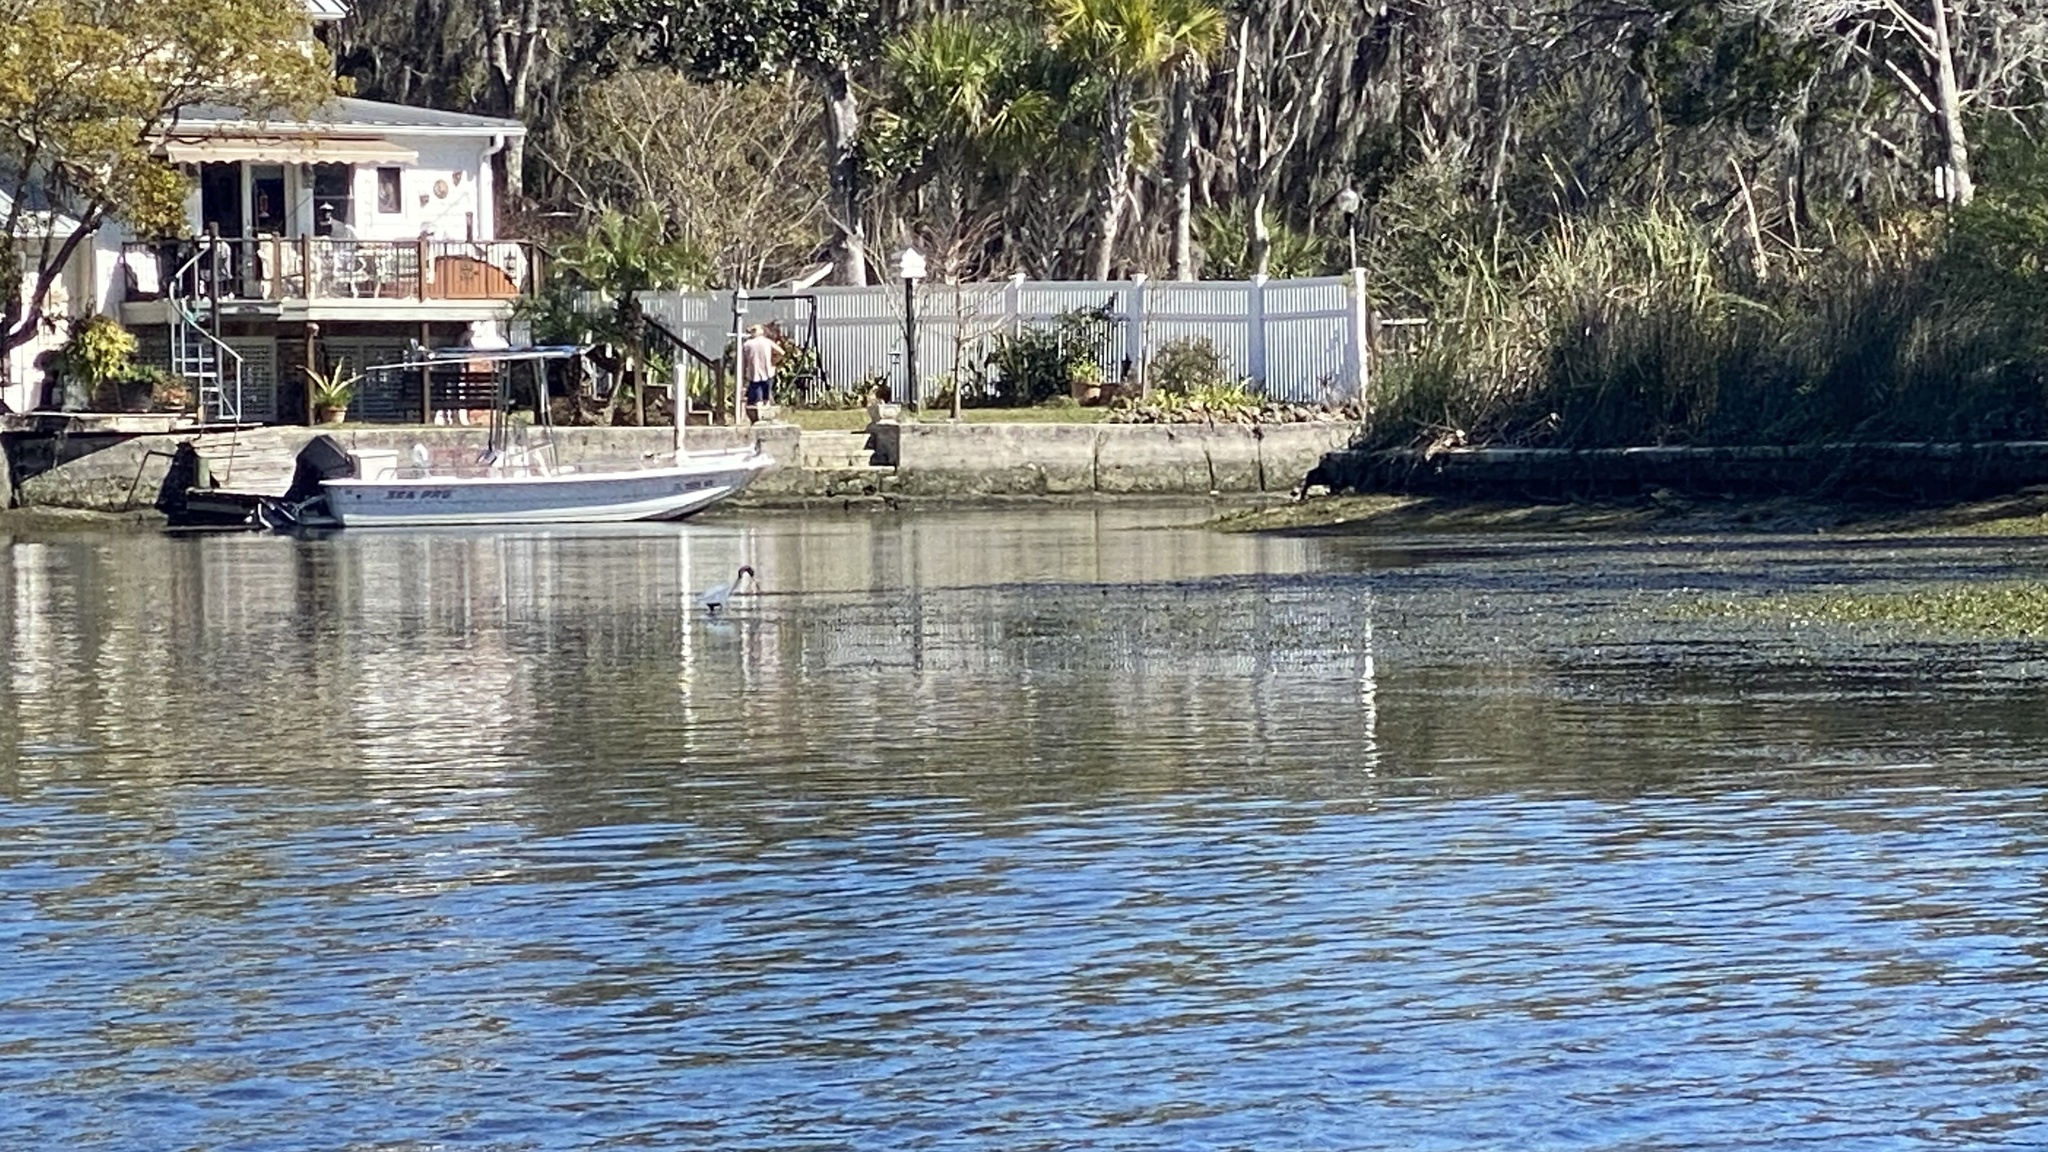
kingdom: Animalia
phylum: Chordata
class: Aves
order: Pelecaniformes
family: Ardeidae
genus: Egretta
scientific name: Egretta caerulea
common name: Little blue heron
